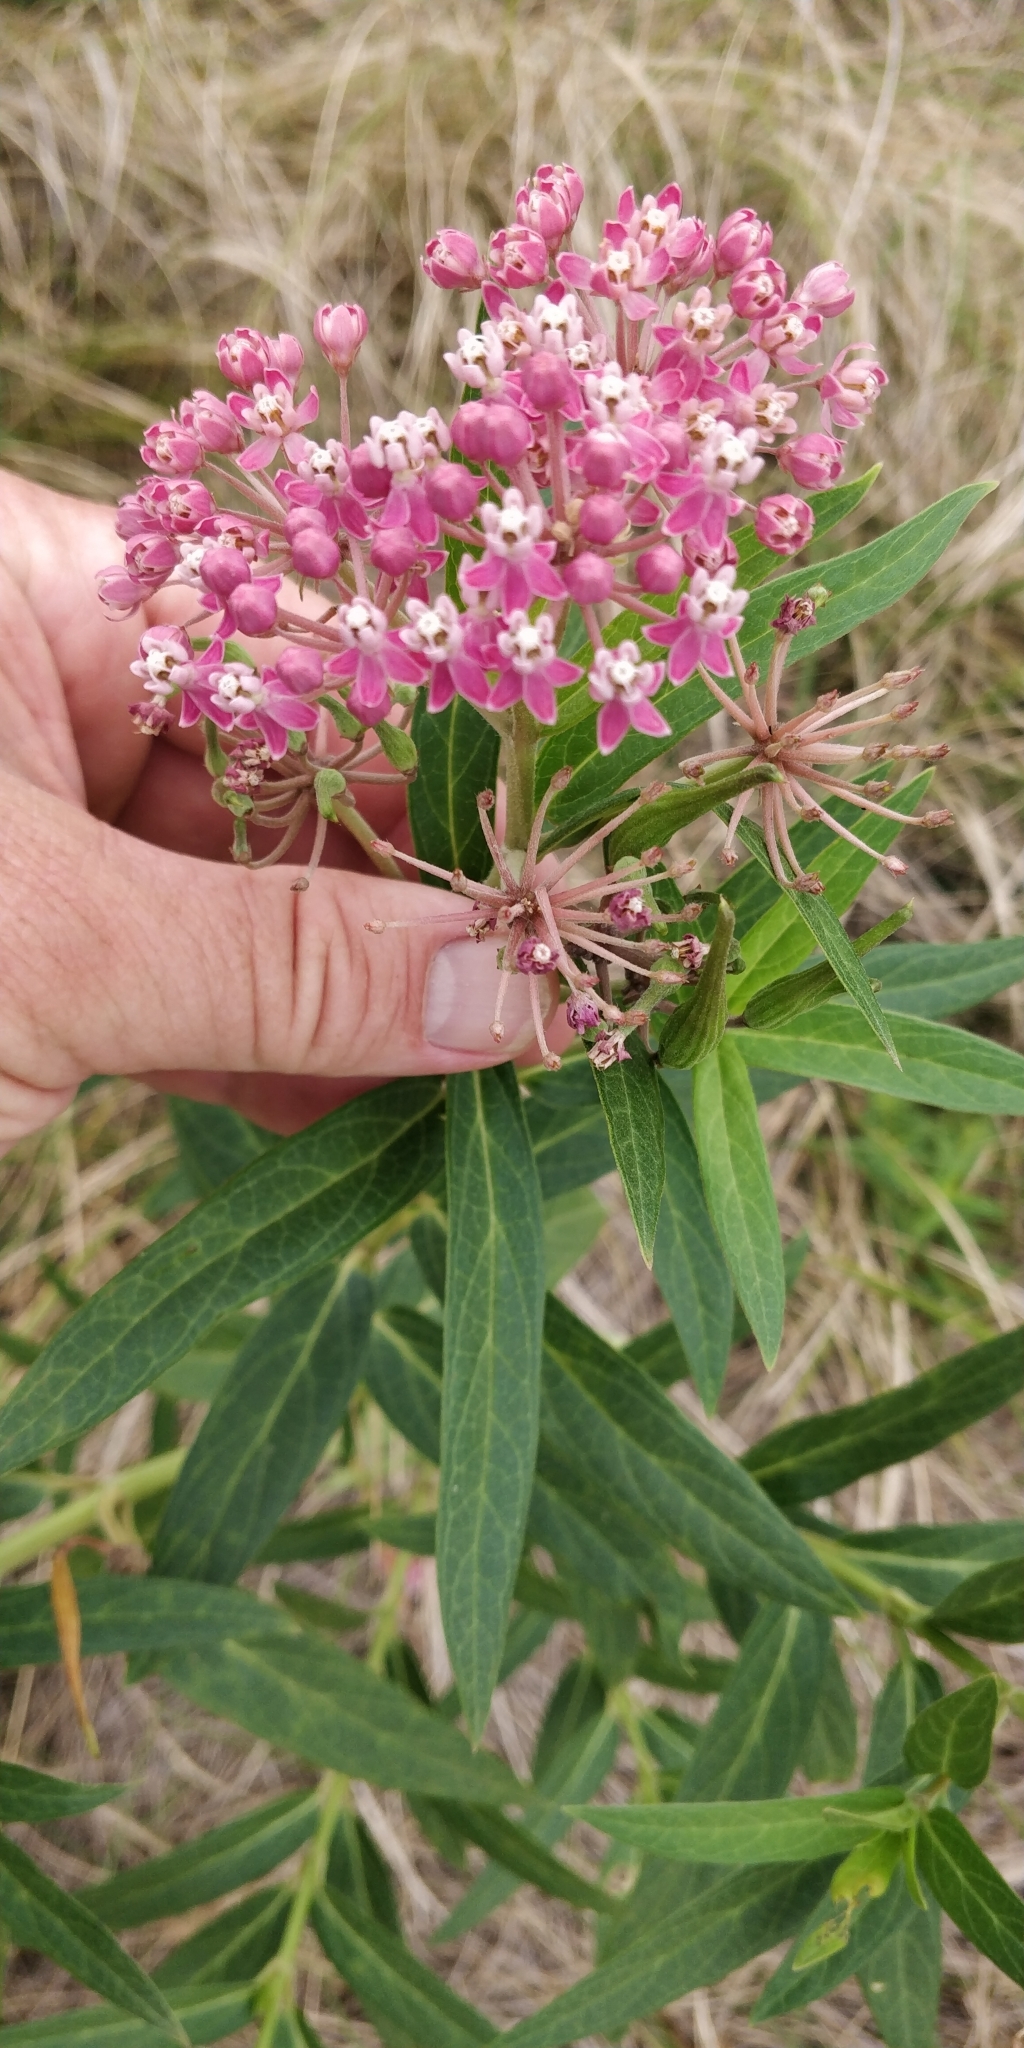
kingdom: Plantae
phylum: Tracheophyta
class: Magnoliopsida
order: Gentianales
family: Apocynaceae
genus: Asclepias
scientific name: Asclepias incarnata
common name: Swamp milkweed
